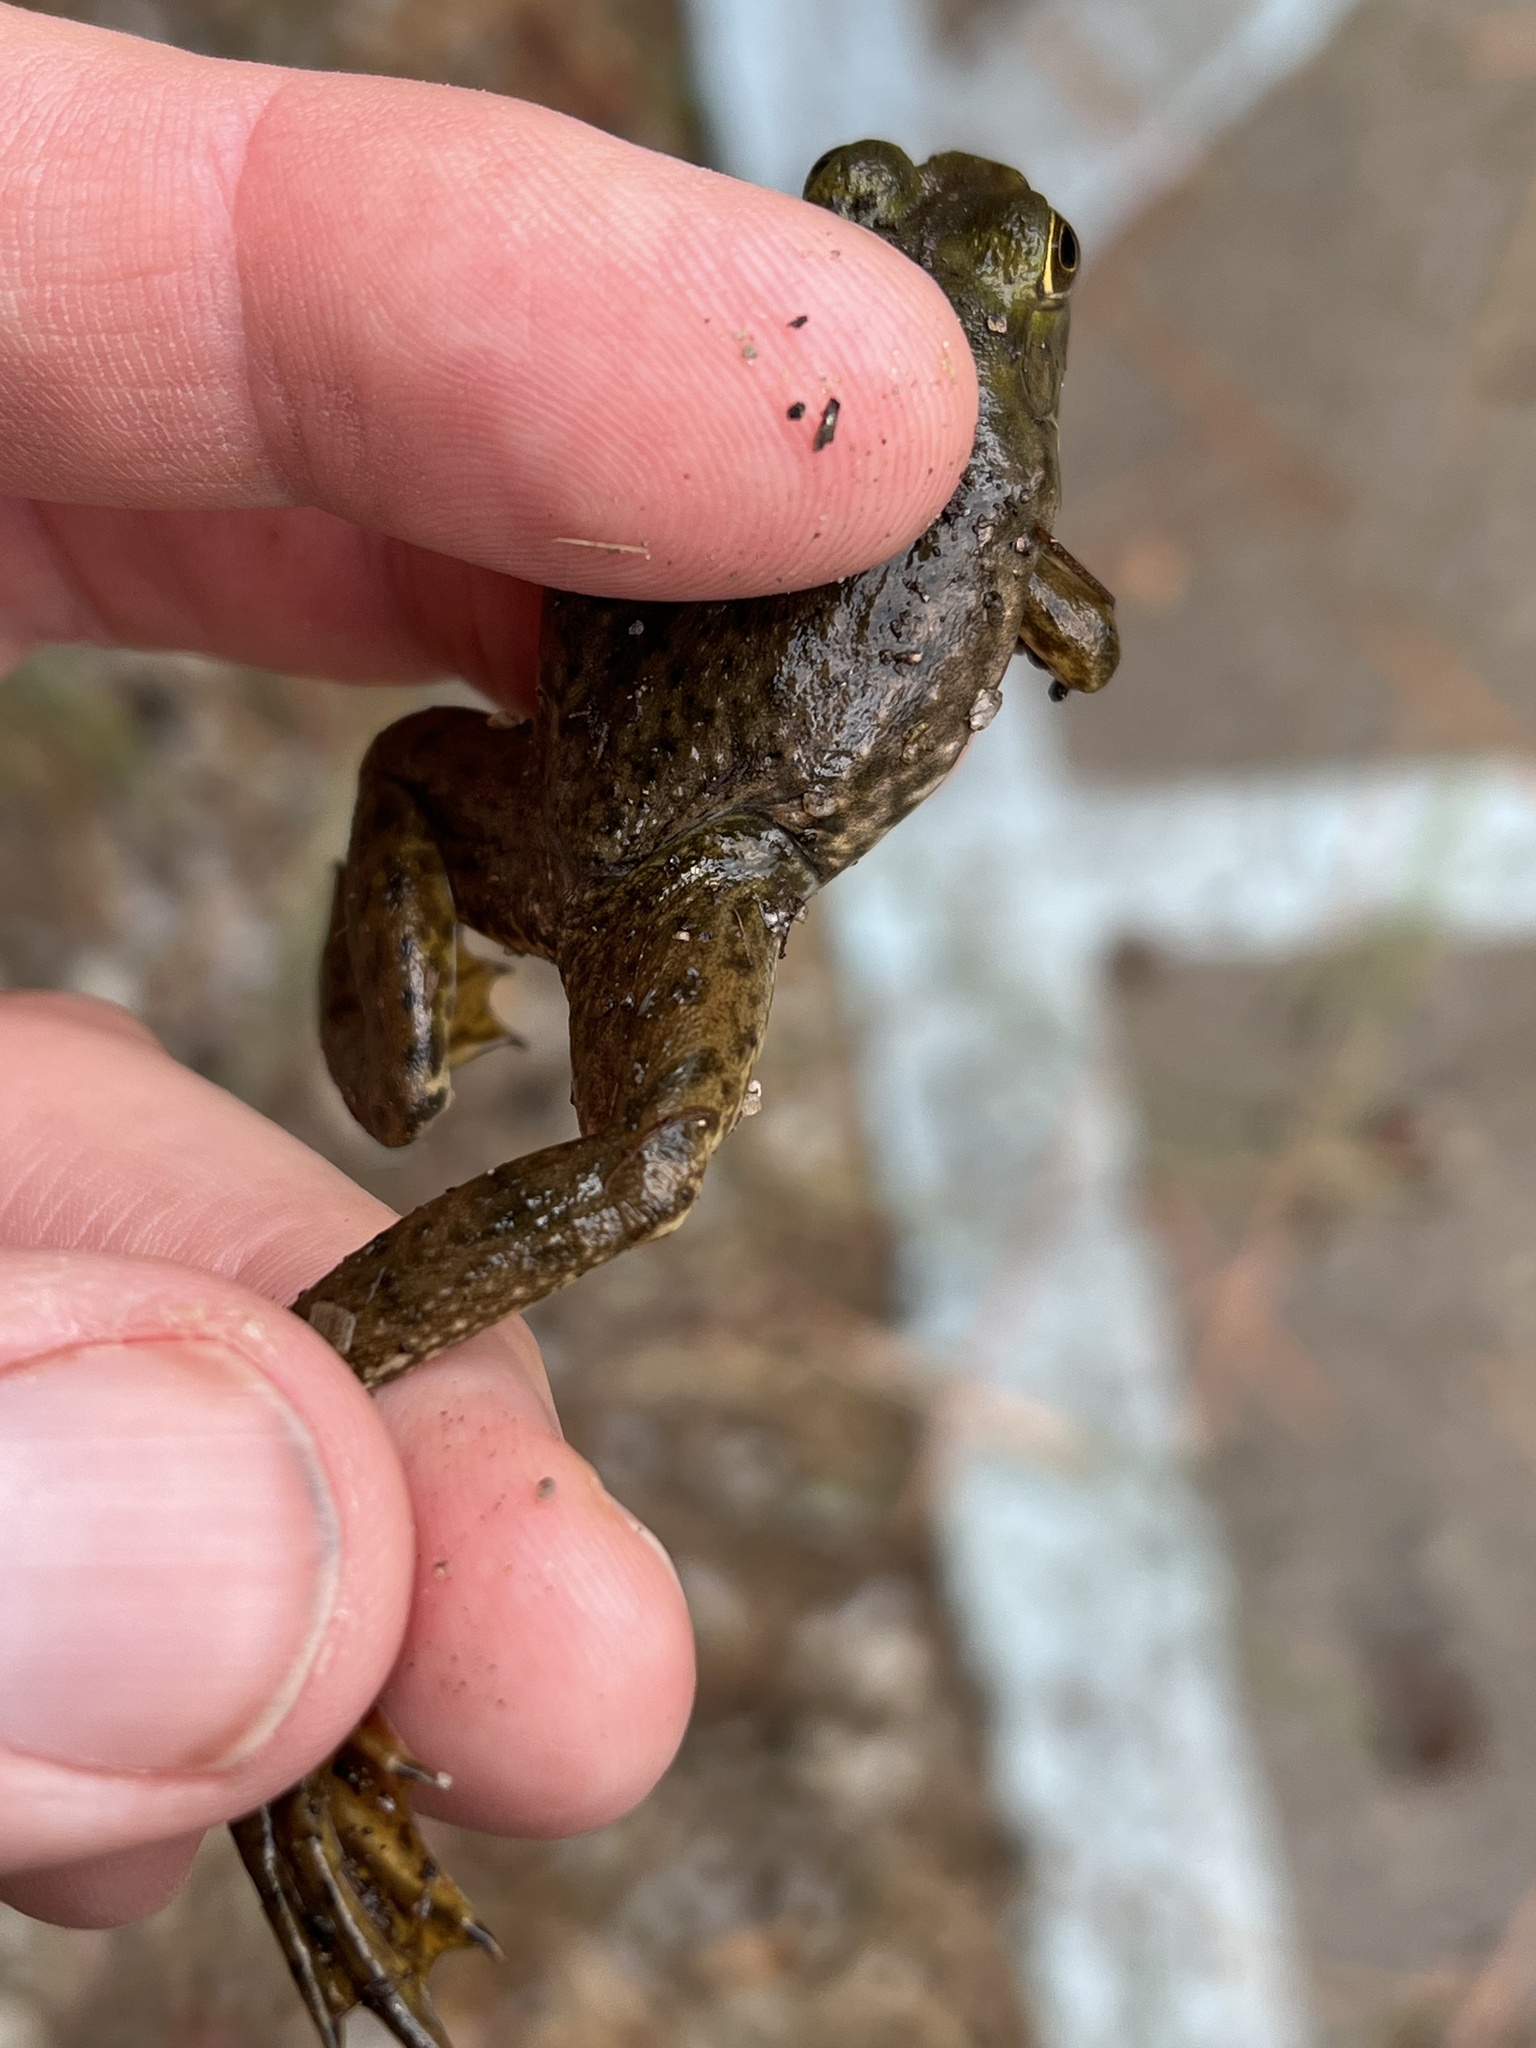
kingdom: Animalia
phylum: Chordata
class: Amphibia
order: Anura
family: Ranidae
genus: Lithobates
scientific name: Lithobates catesbeianus
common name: American bullfrog
